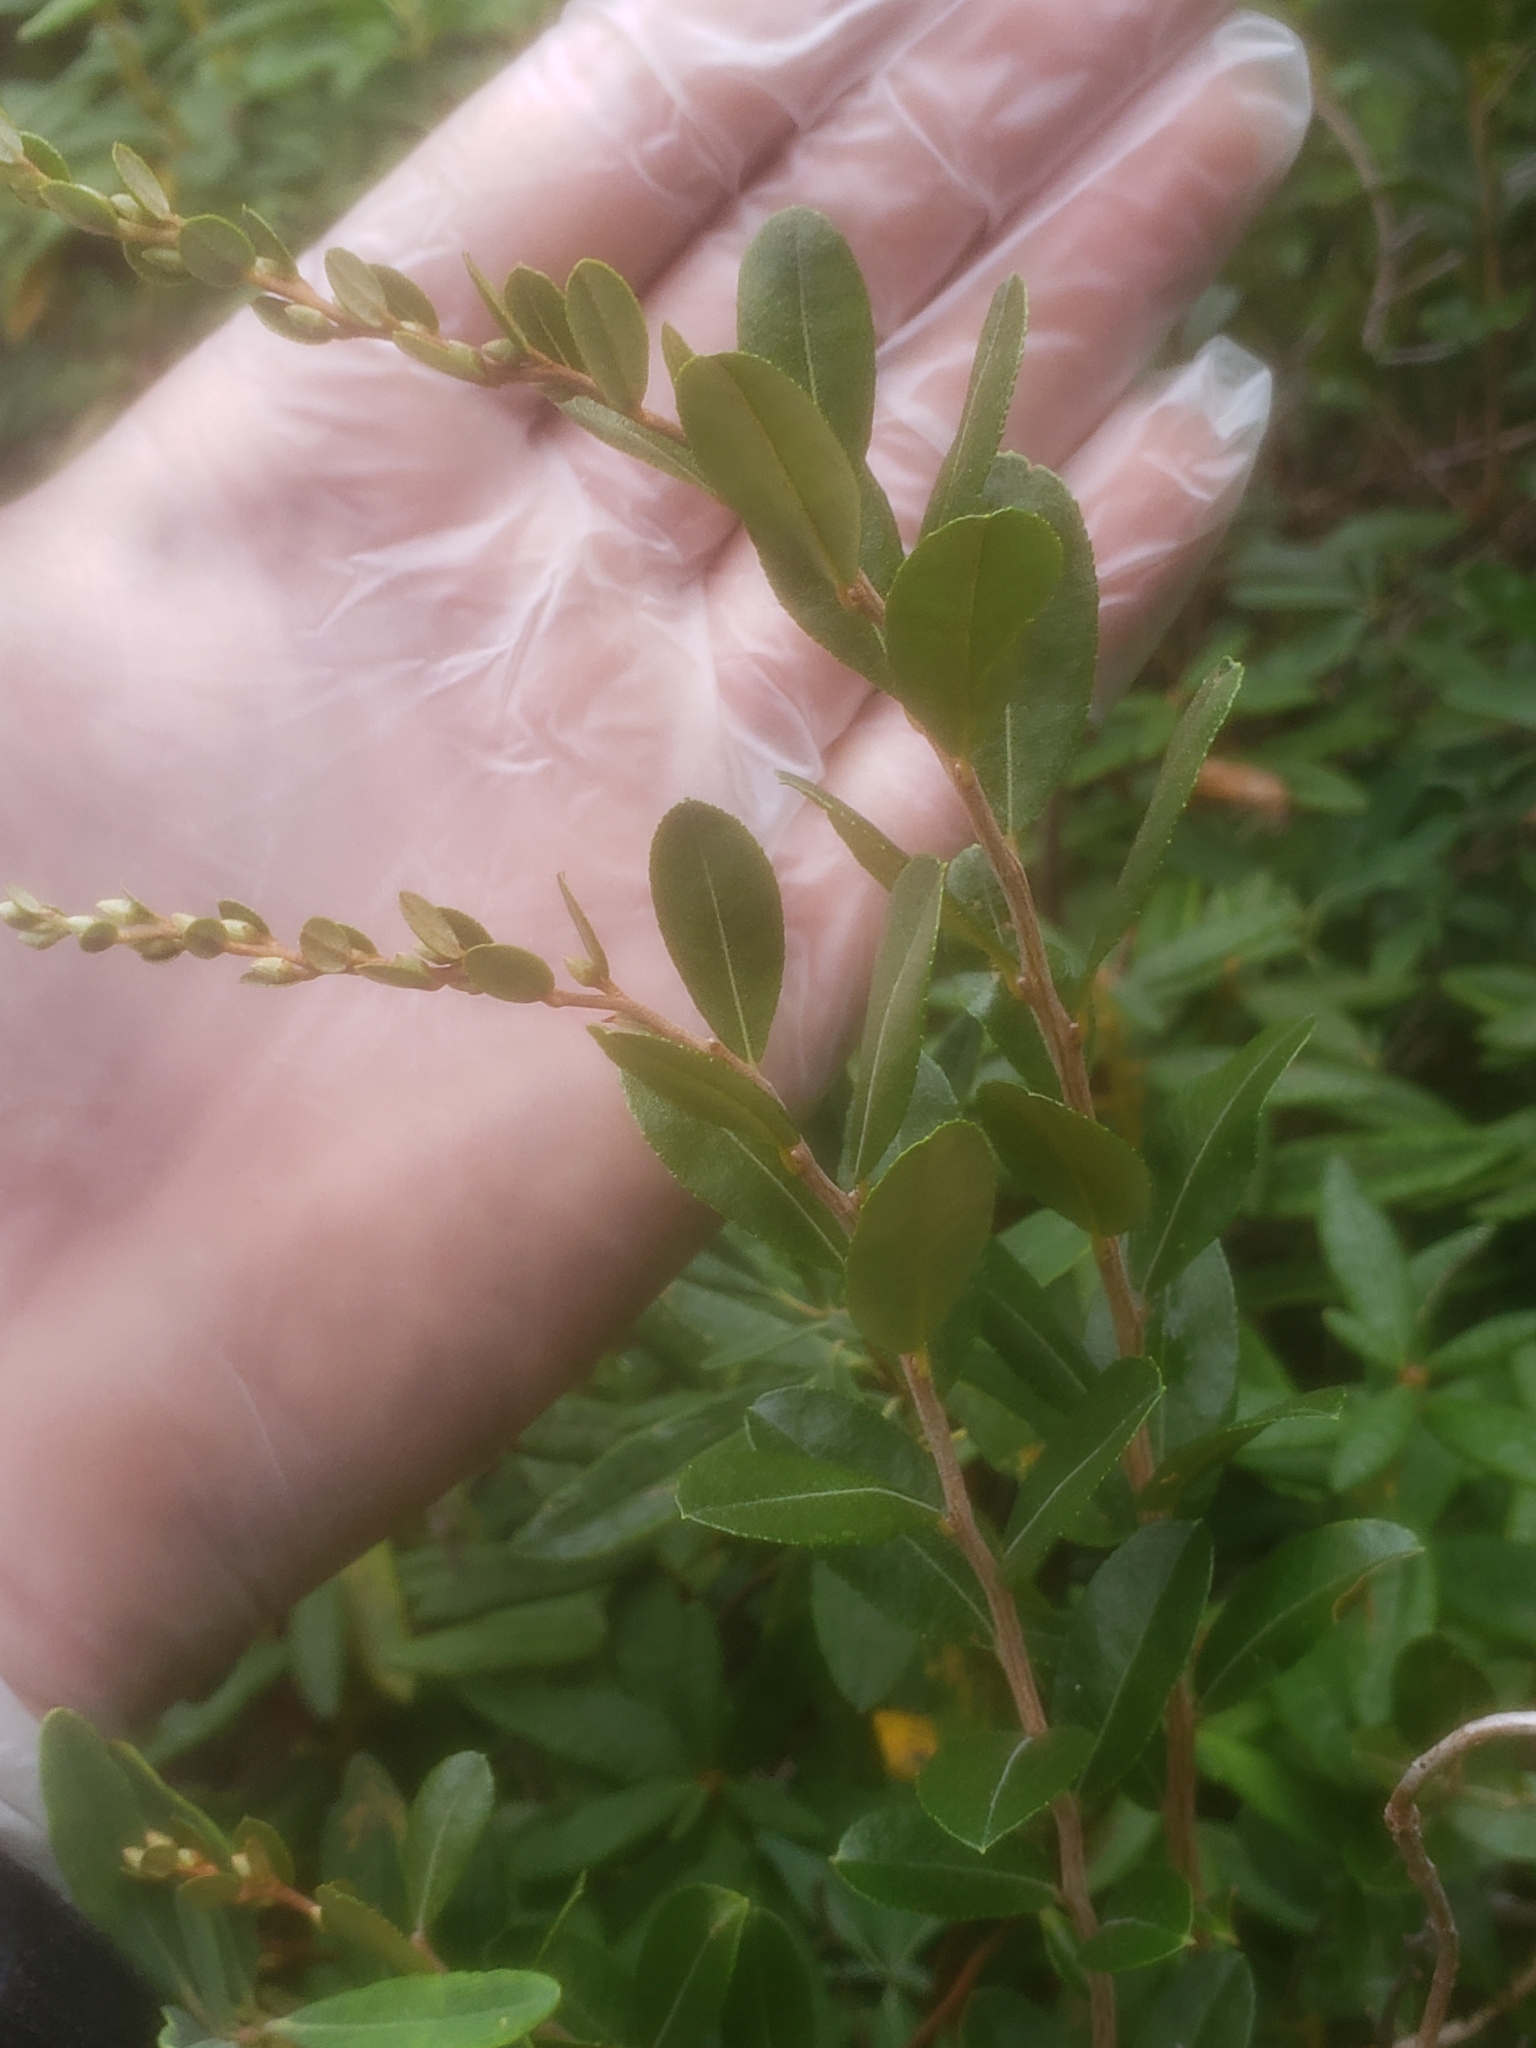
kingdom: Plantae
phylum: Tracheophyta
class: Magnoliopsida
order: Ericales
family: Ericaceae
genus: Chamaedaphne
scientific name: Chamaedaphne calyculata
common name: Leatherleaf
